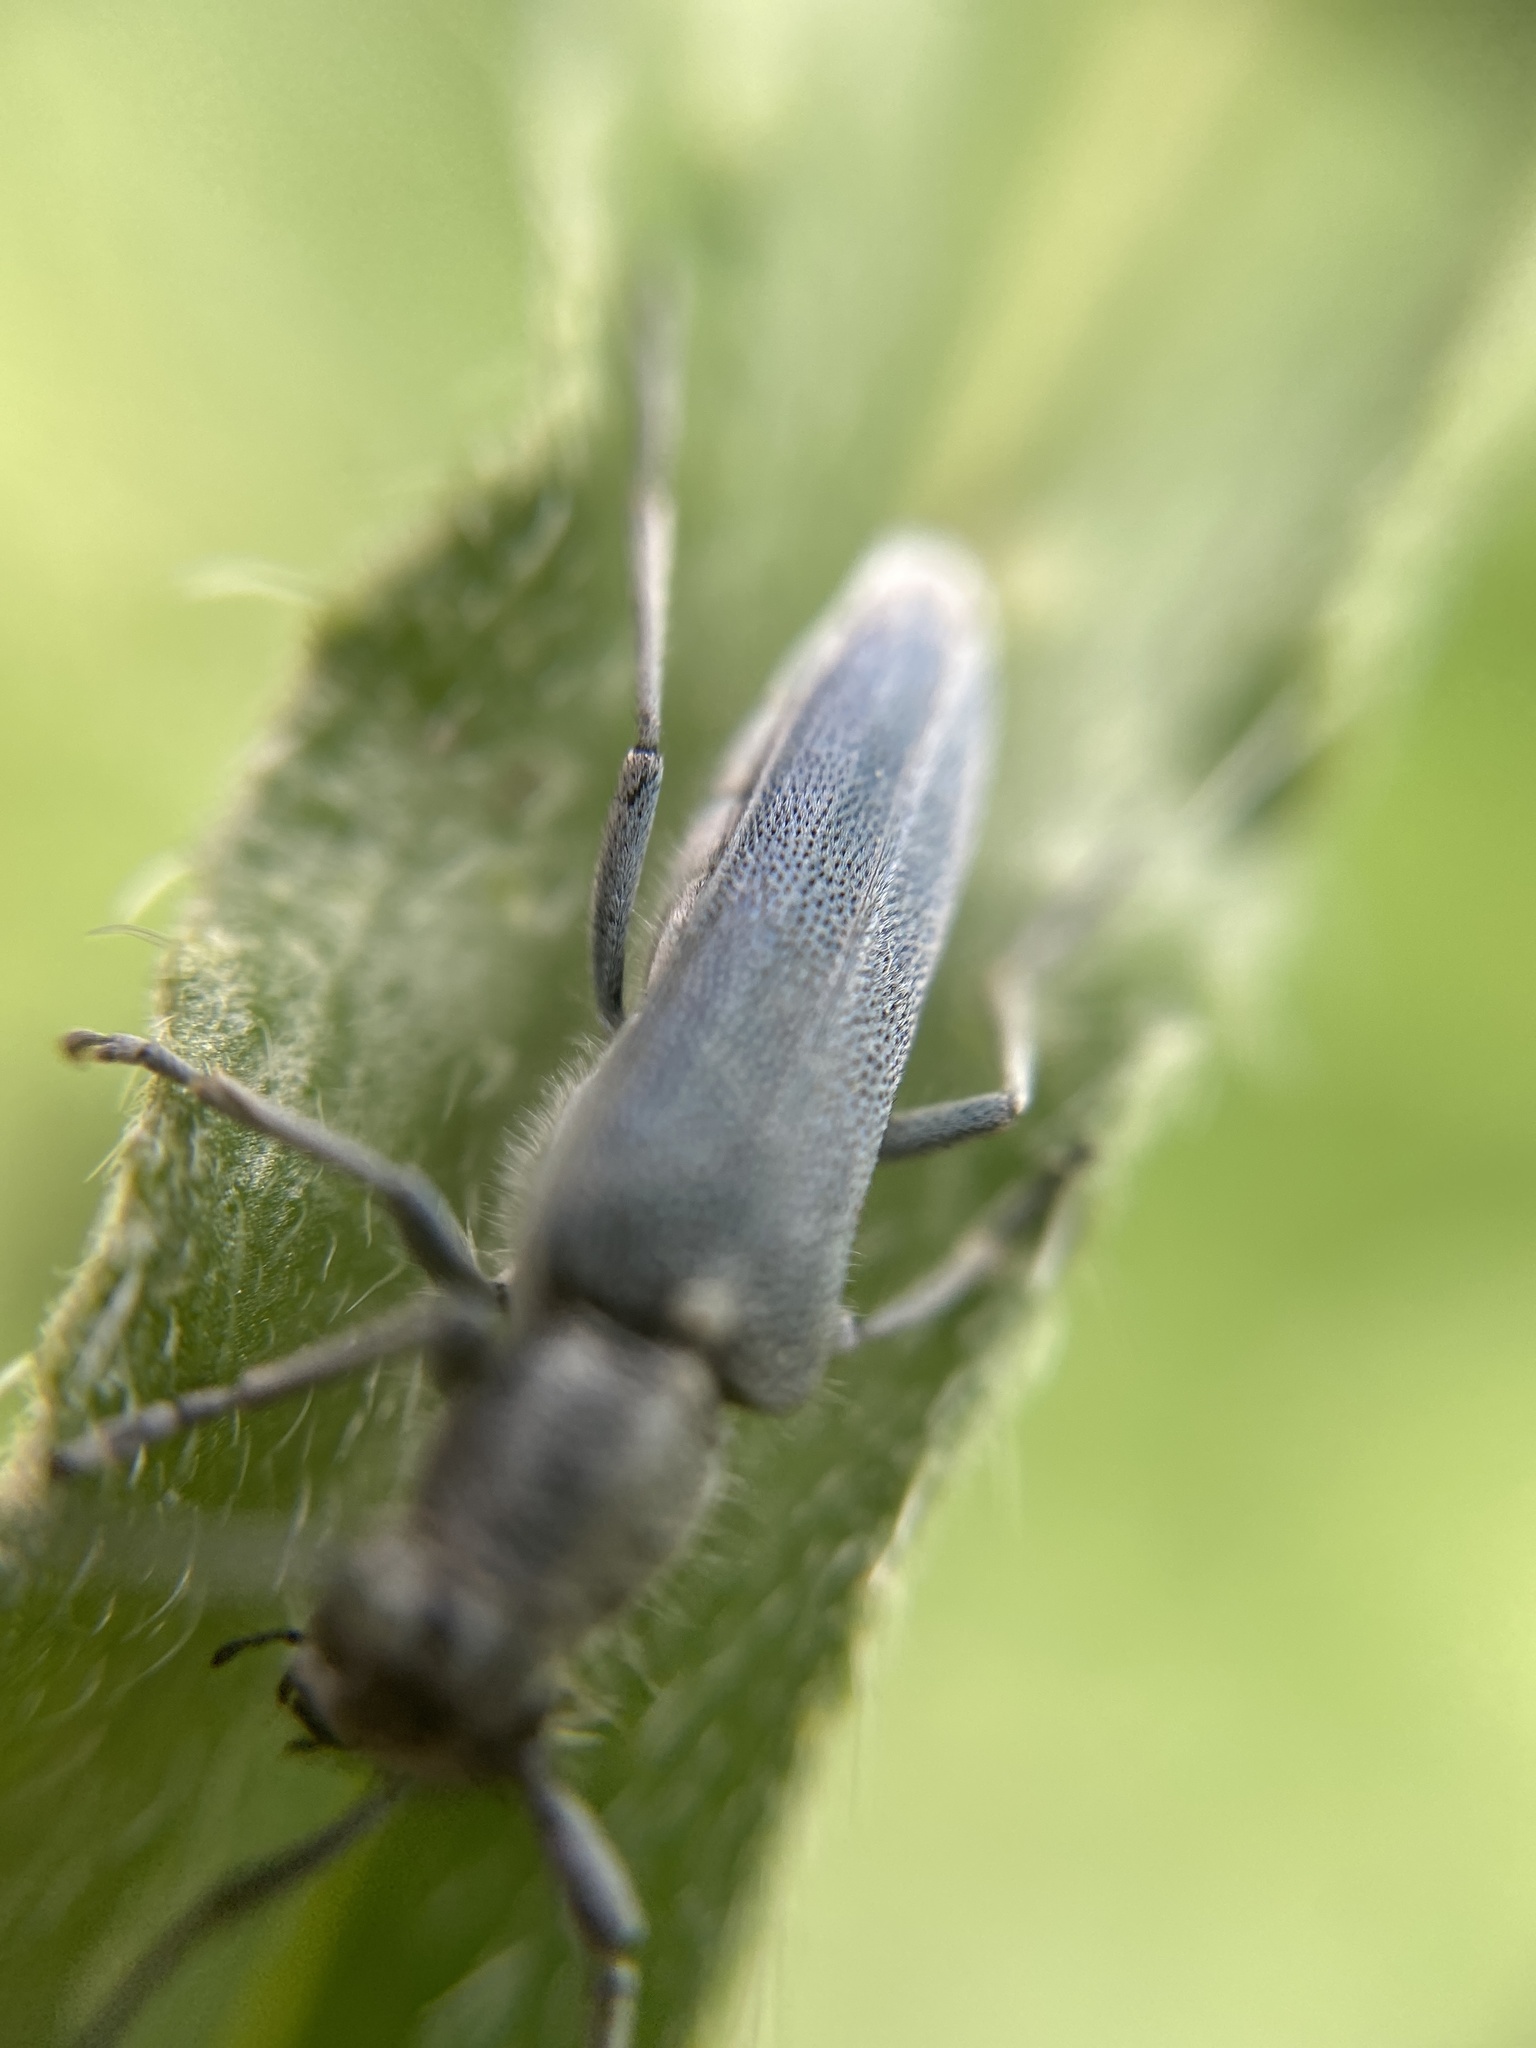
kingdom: Animalia
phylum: Arthropoda
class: Insecta
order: Coleoptera
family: Cerambycidae
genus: Phytoecia
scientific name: Phytoecia coerulescens
